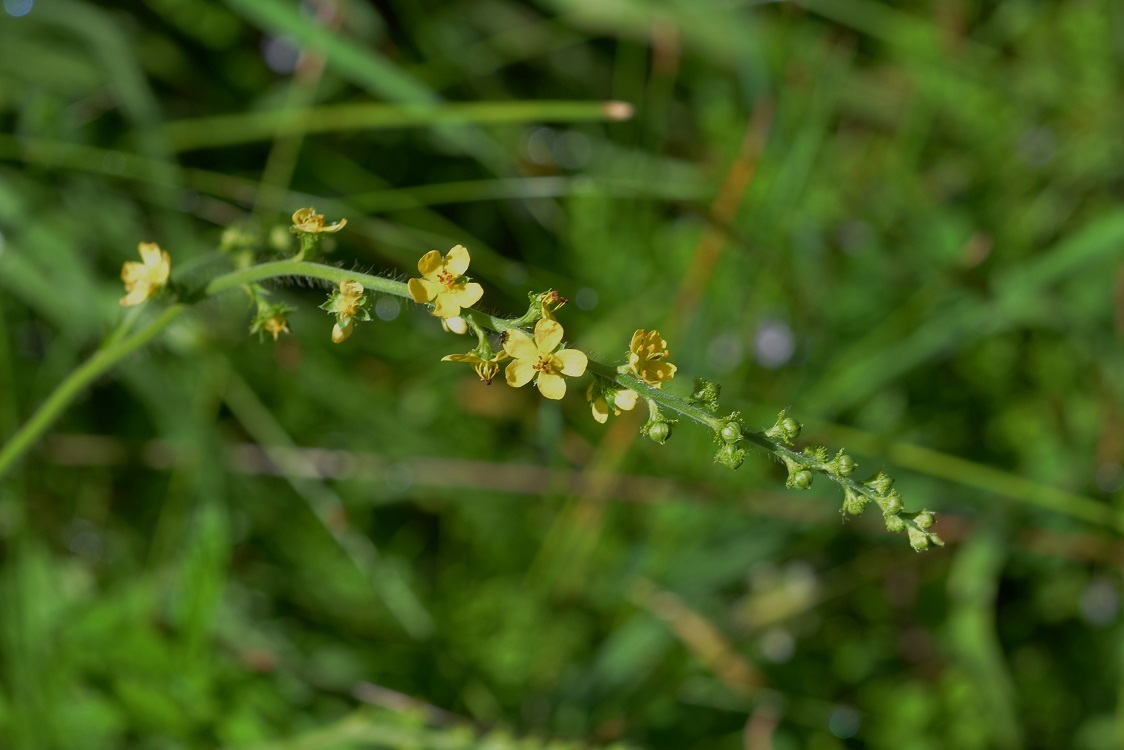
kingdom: Plantae
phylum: Tracheophyta
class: Magnoliopsida
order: Rosales
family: Rosaceae
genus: Agrimonia
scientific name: Agrimonia gryposepala
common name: Common agrimony
